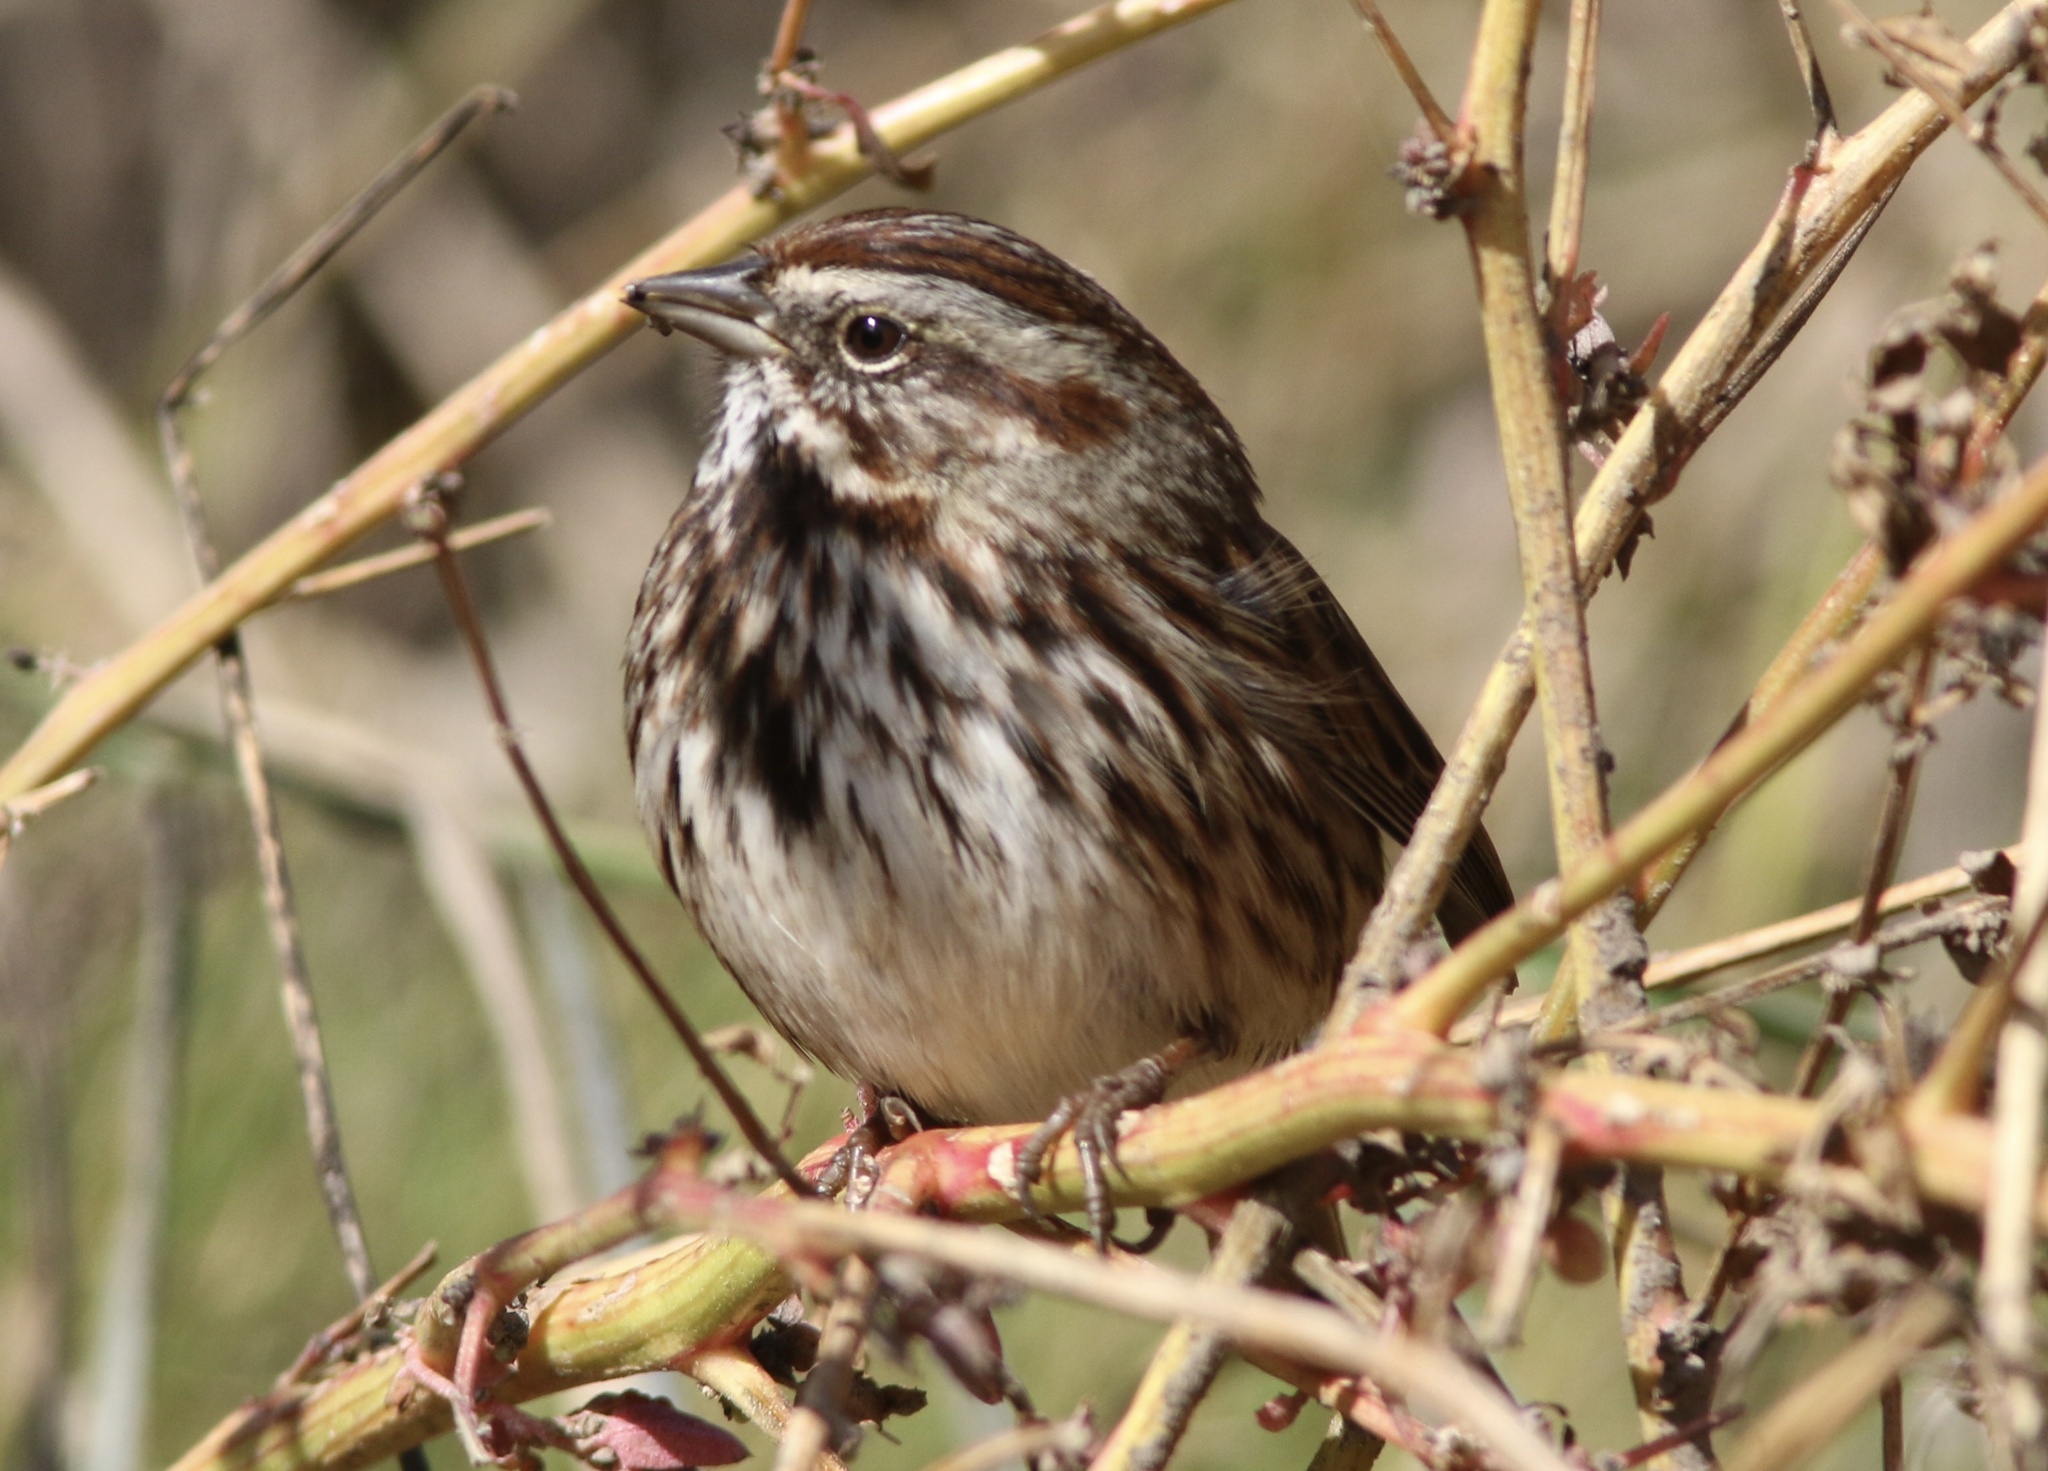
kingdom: Animalia
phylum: Chordata
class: Aves
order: Passeriformes
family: Passerellidae
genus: Melospiza
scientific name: Melospiza melodia
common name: Song sparrow
